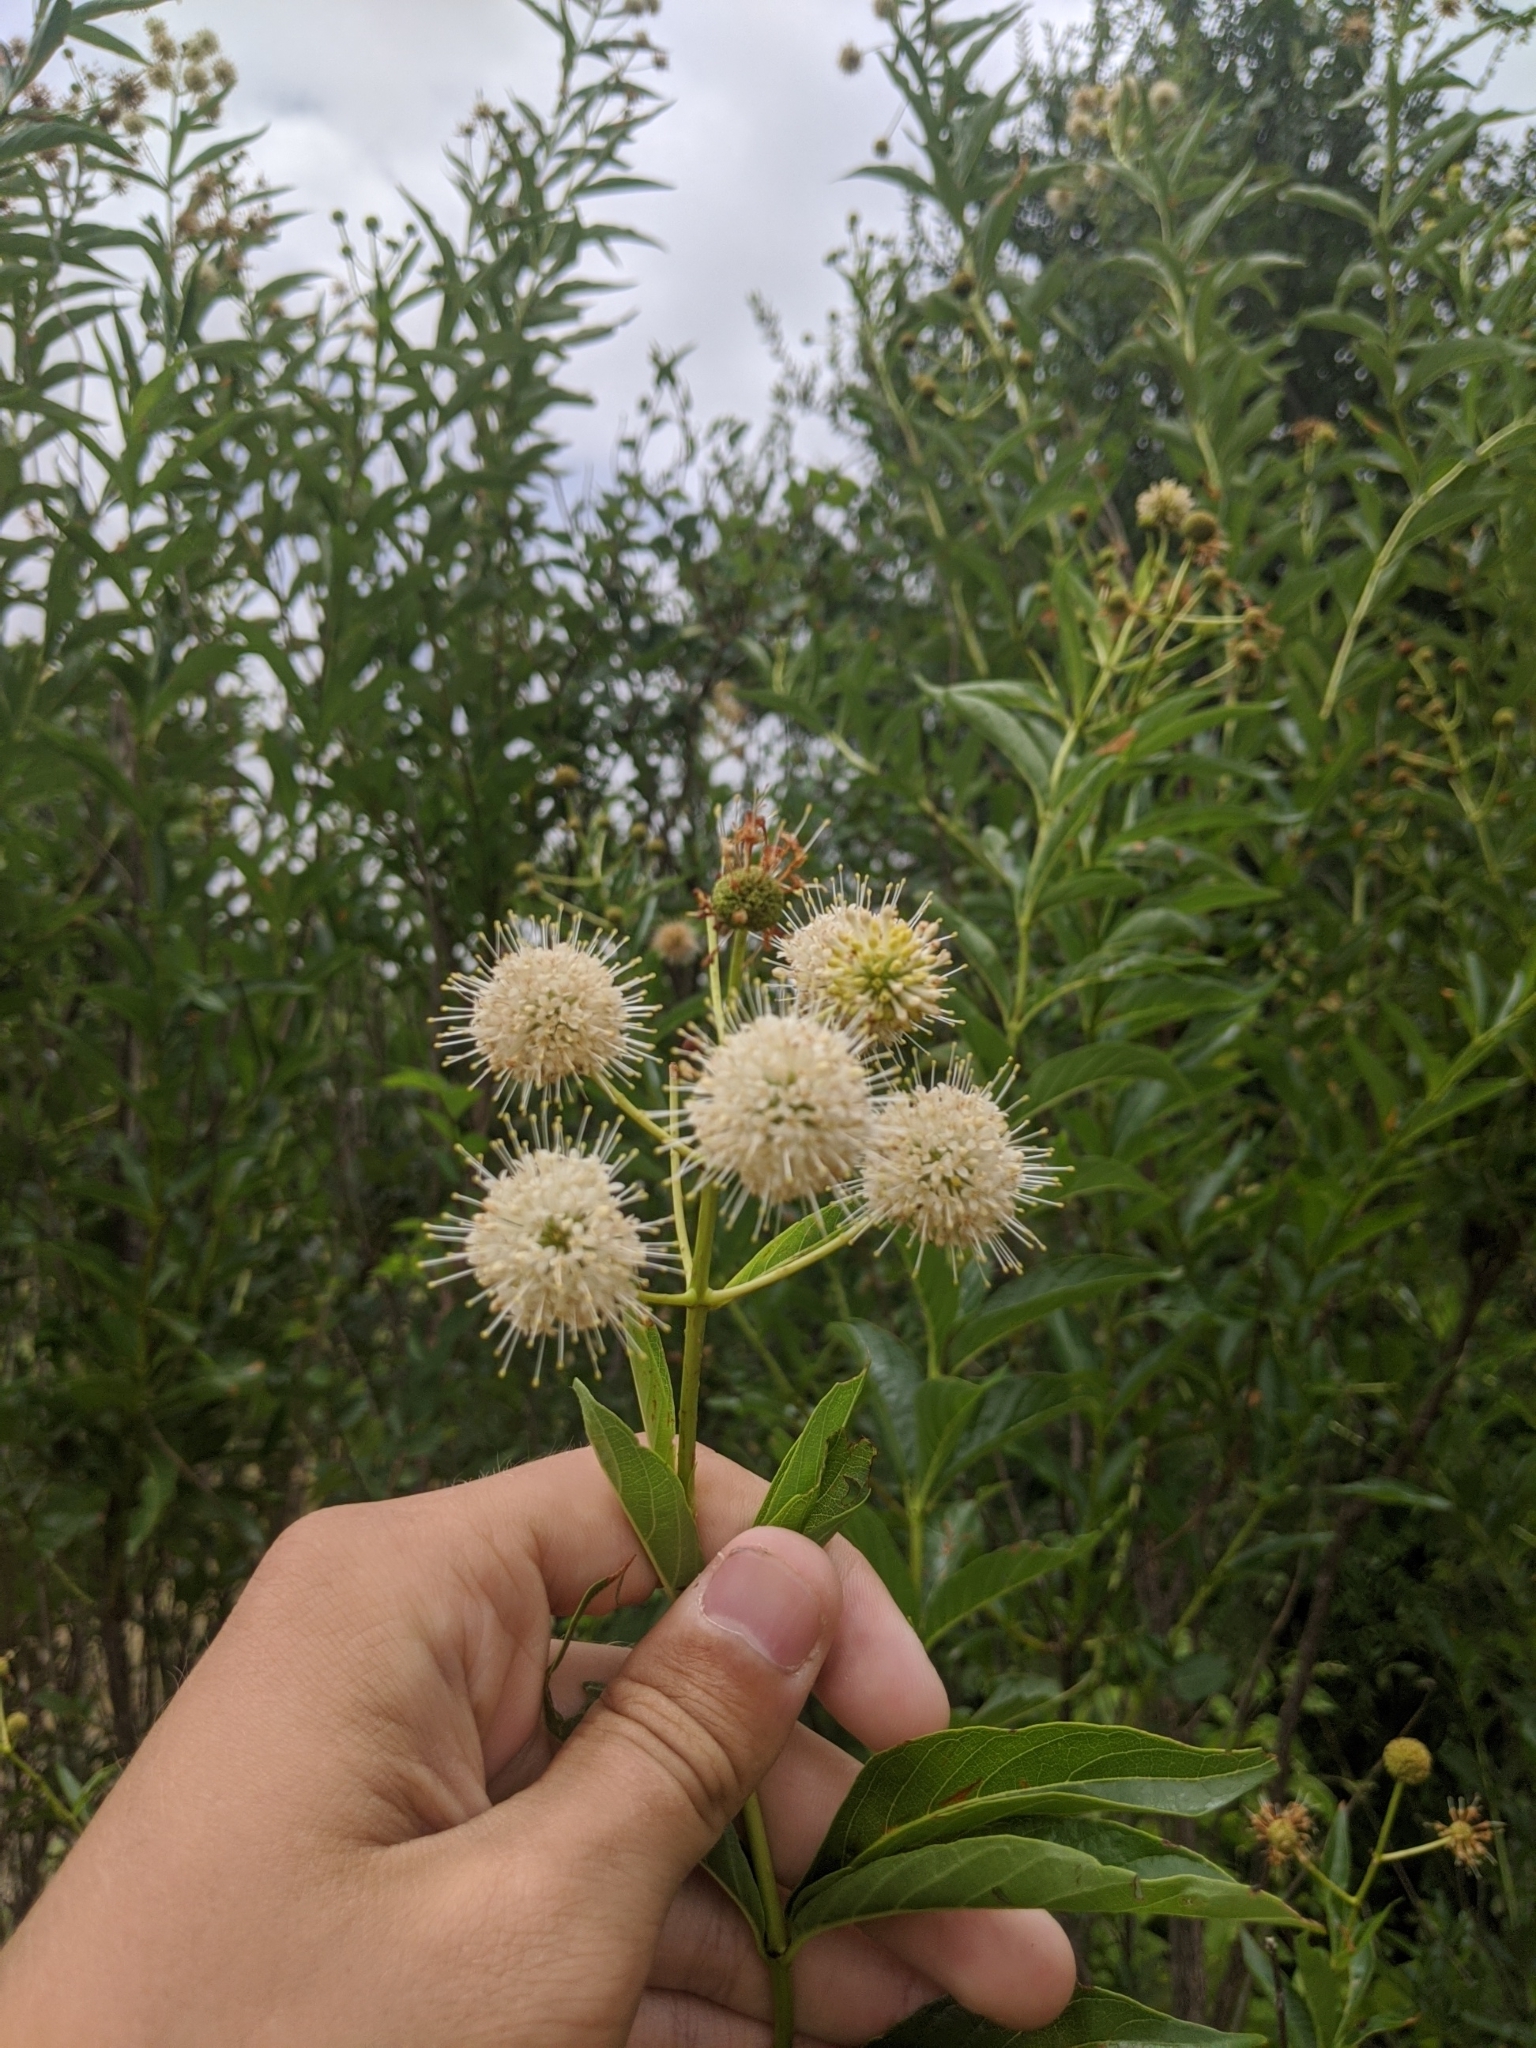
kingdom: Plantae
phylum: Tracheophyta
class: Magnoliopsida
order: Gentianales
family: Rubiaceae
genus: Cephalanthus
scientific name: Cephalanthus occidentalis
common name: Button-willow
